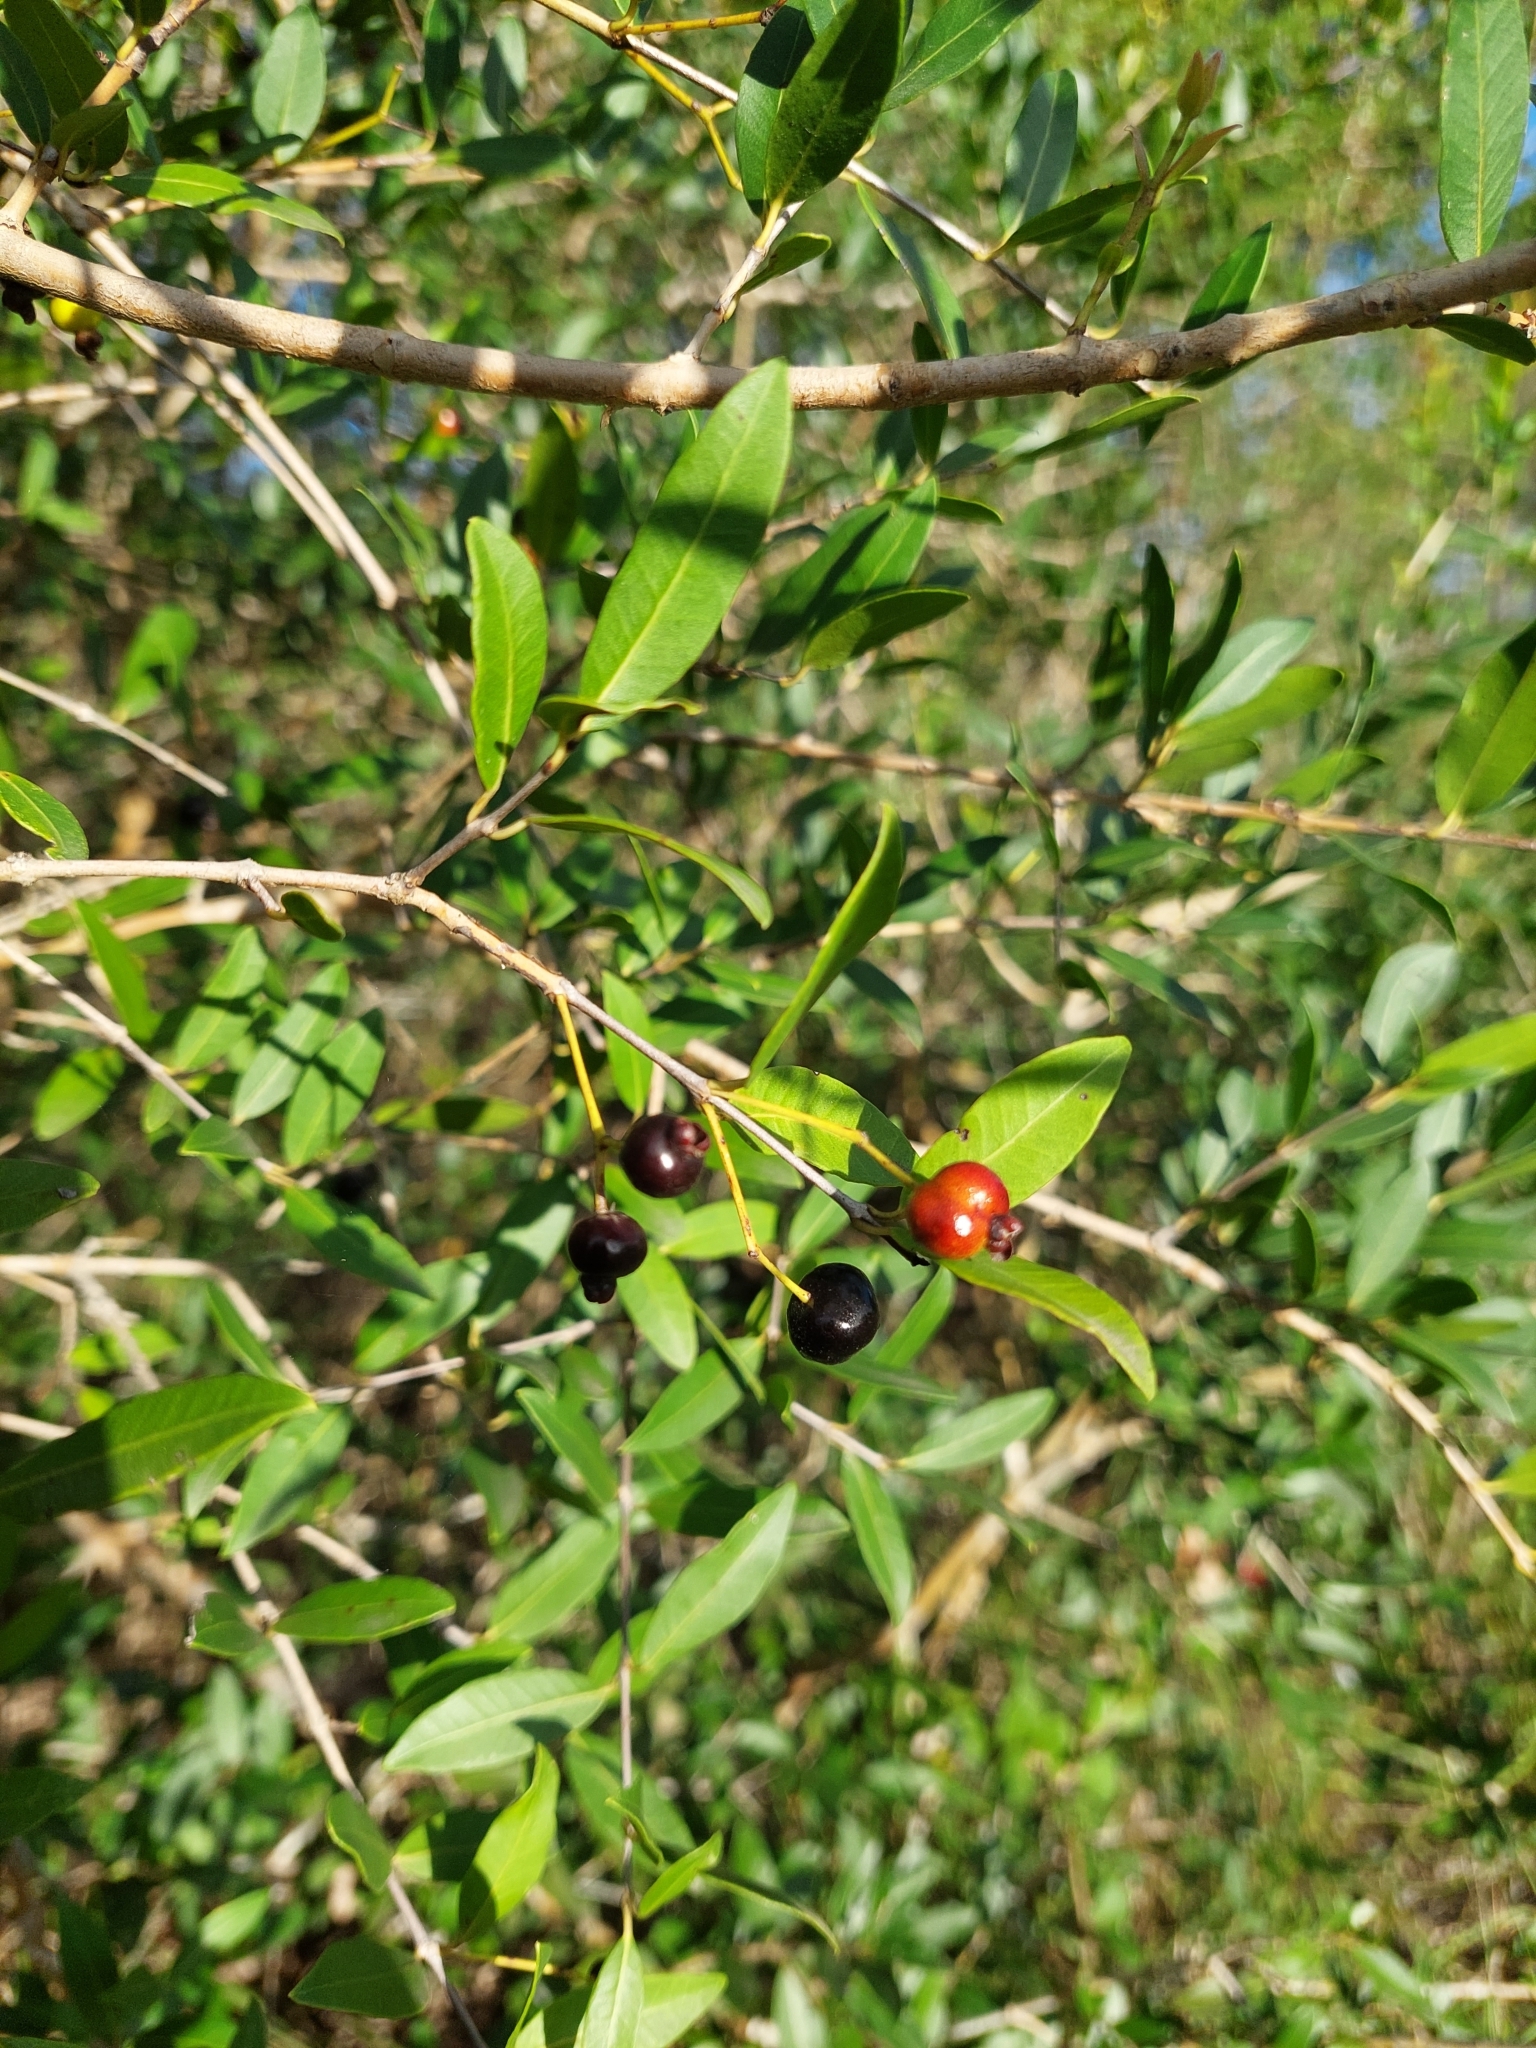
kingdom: Plantae
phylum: Tracheophyta
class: Magnoliopsida
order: Myrtales
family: Myrtaceae
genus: Myrcianthes
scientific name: Myrcianthes cisplatensis
